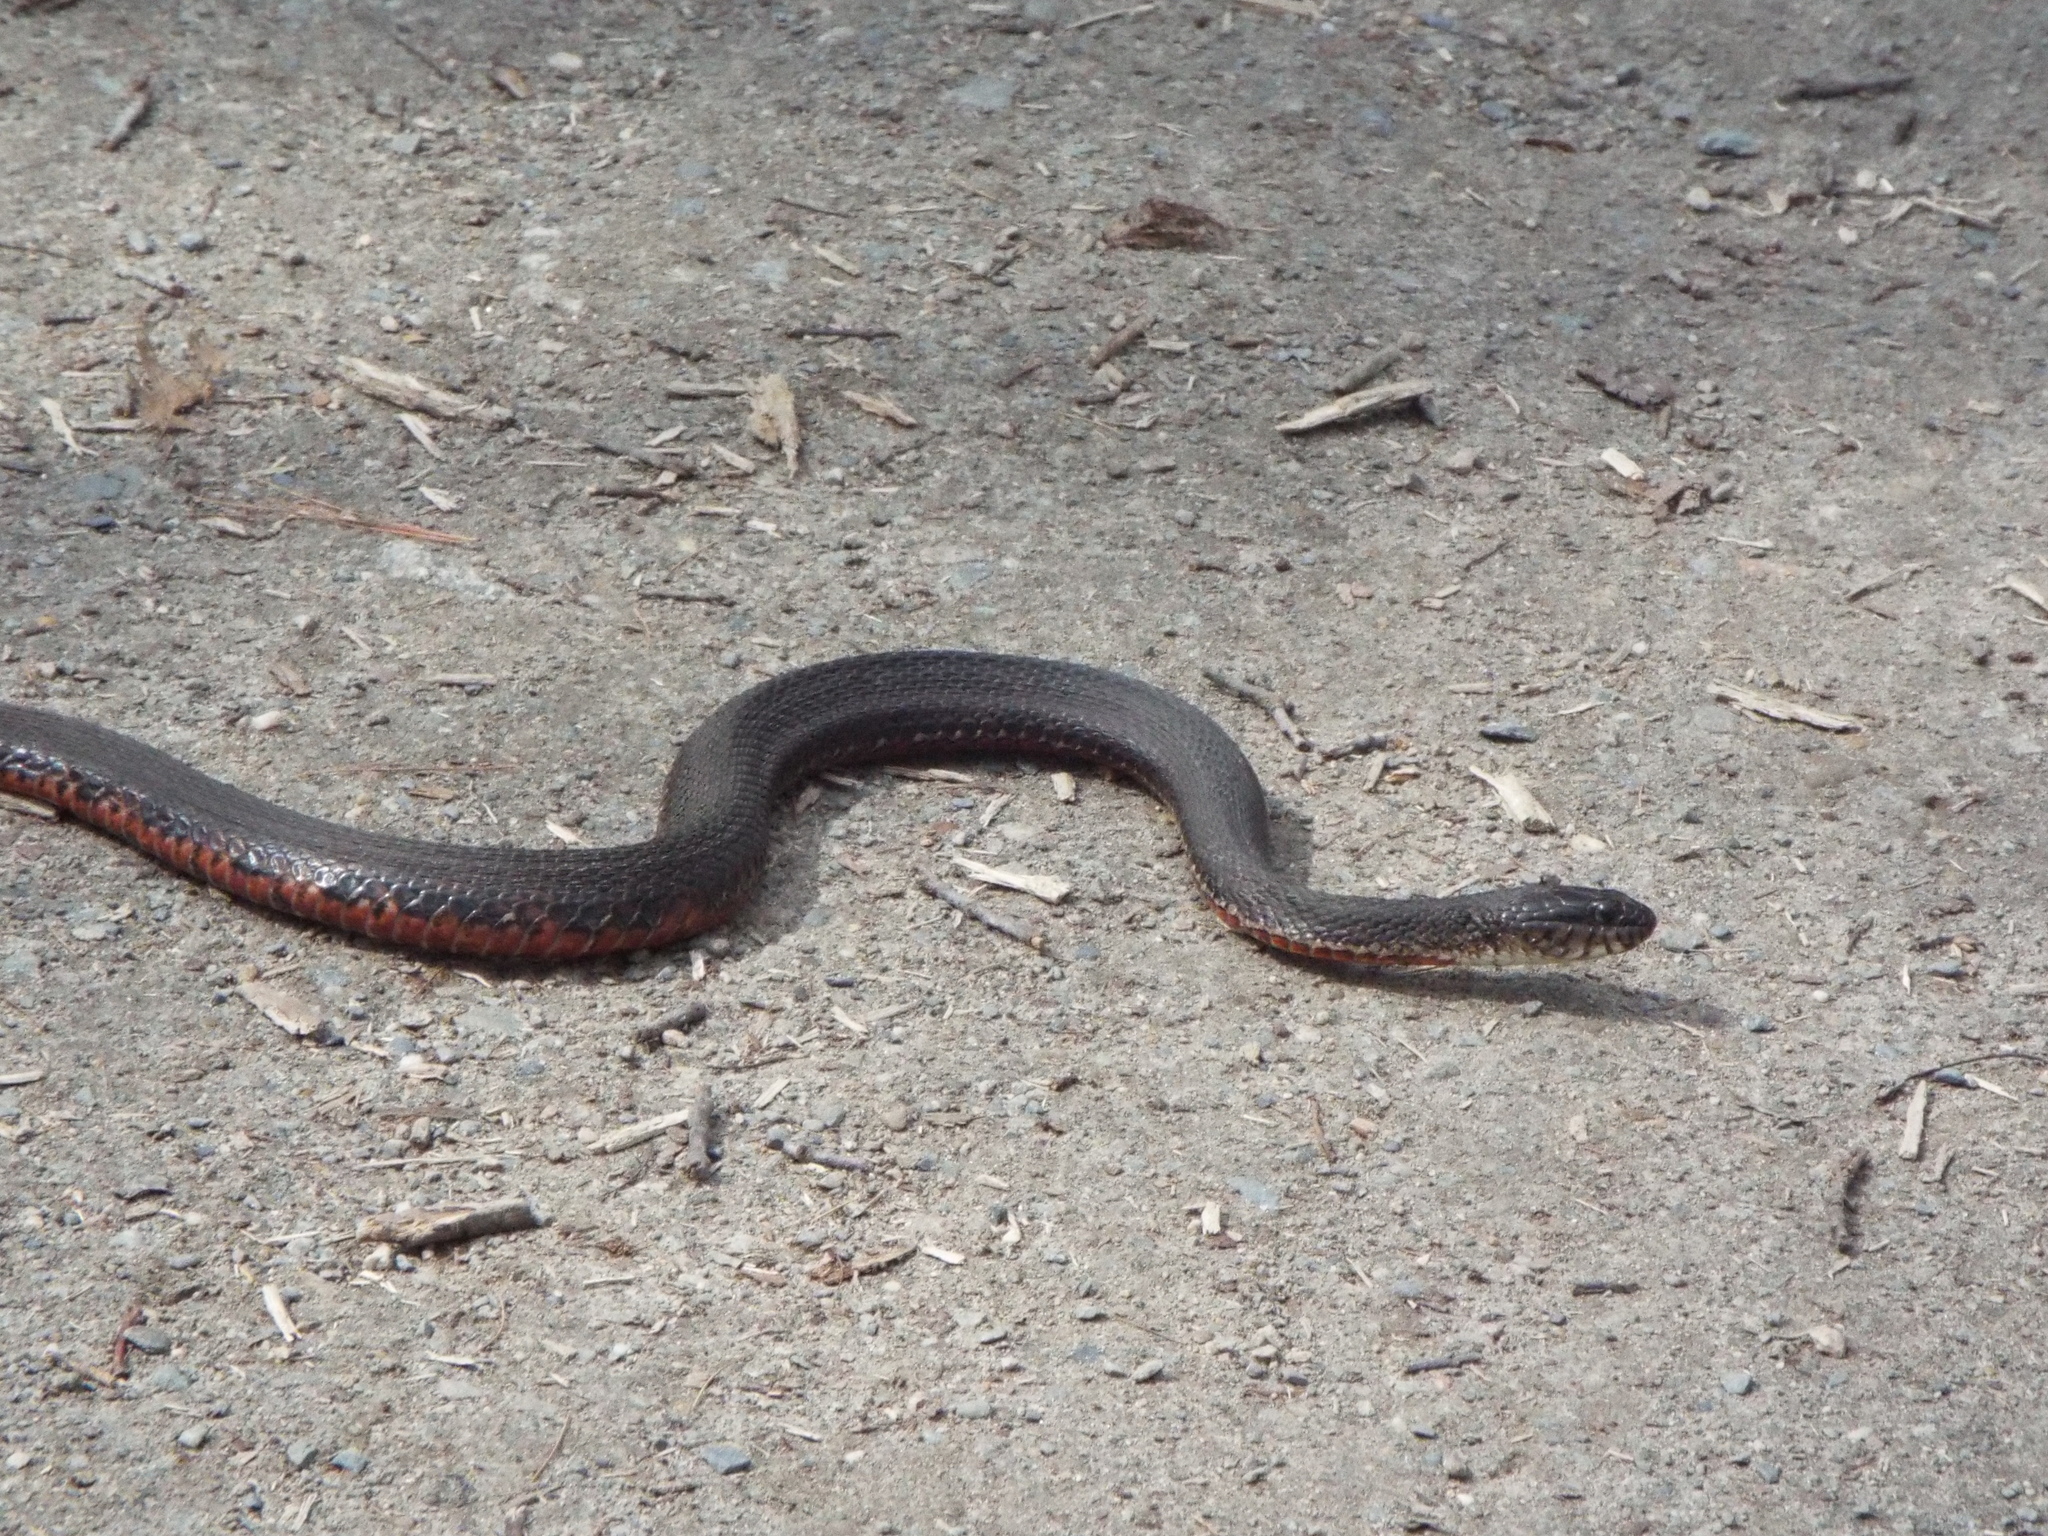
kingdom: Animalia
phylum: Chordata
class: Squamata
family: Colubridae
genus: Nerodia
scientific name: Nerodia sipedon
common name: Northern water snake
